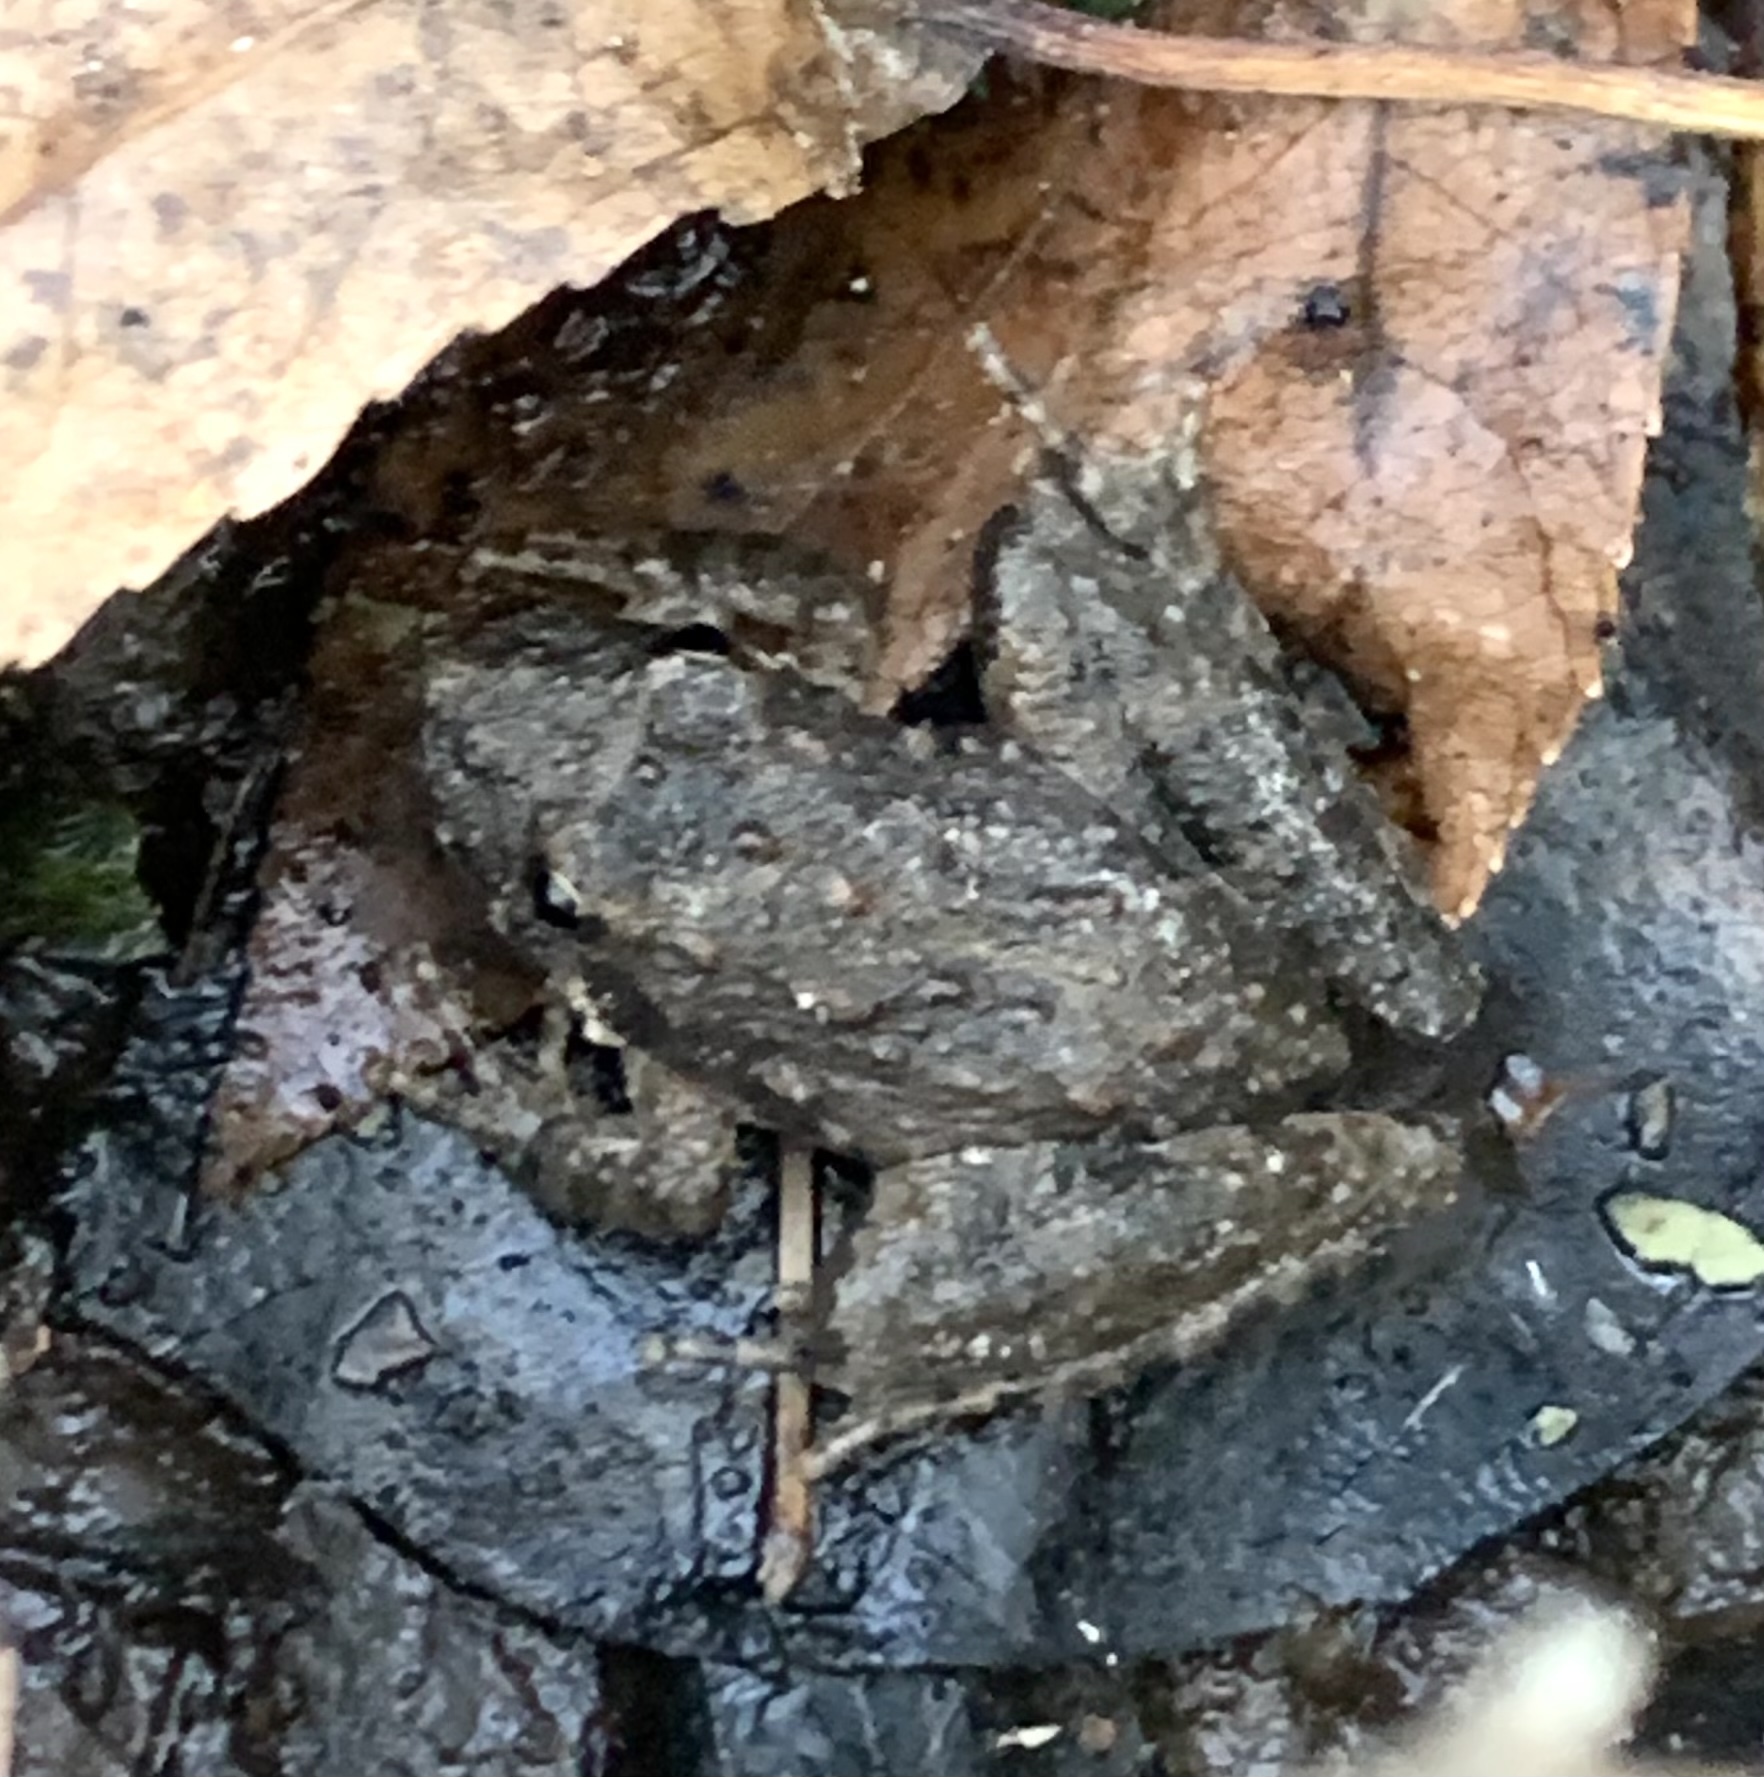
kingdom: Animalia
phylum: Chordata
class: Amphibia
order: Anura
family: Hylidae
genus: Acris
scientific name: Acris blanchardi
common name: Blanchard's cricket frog
